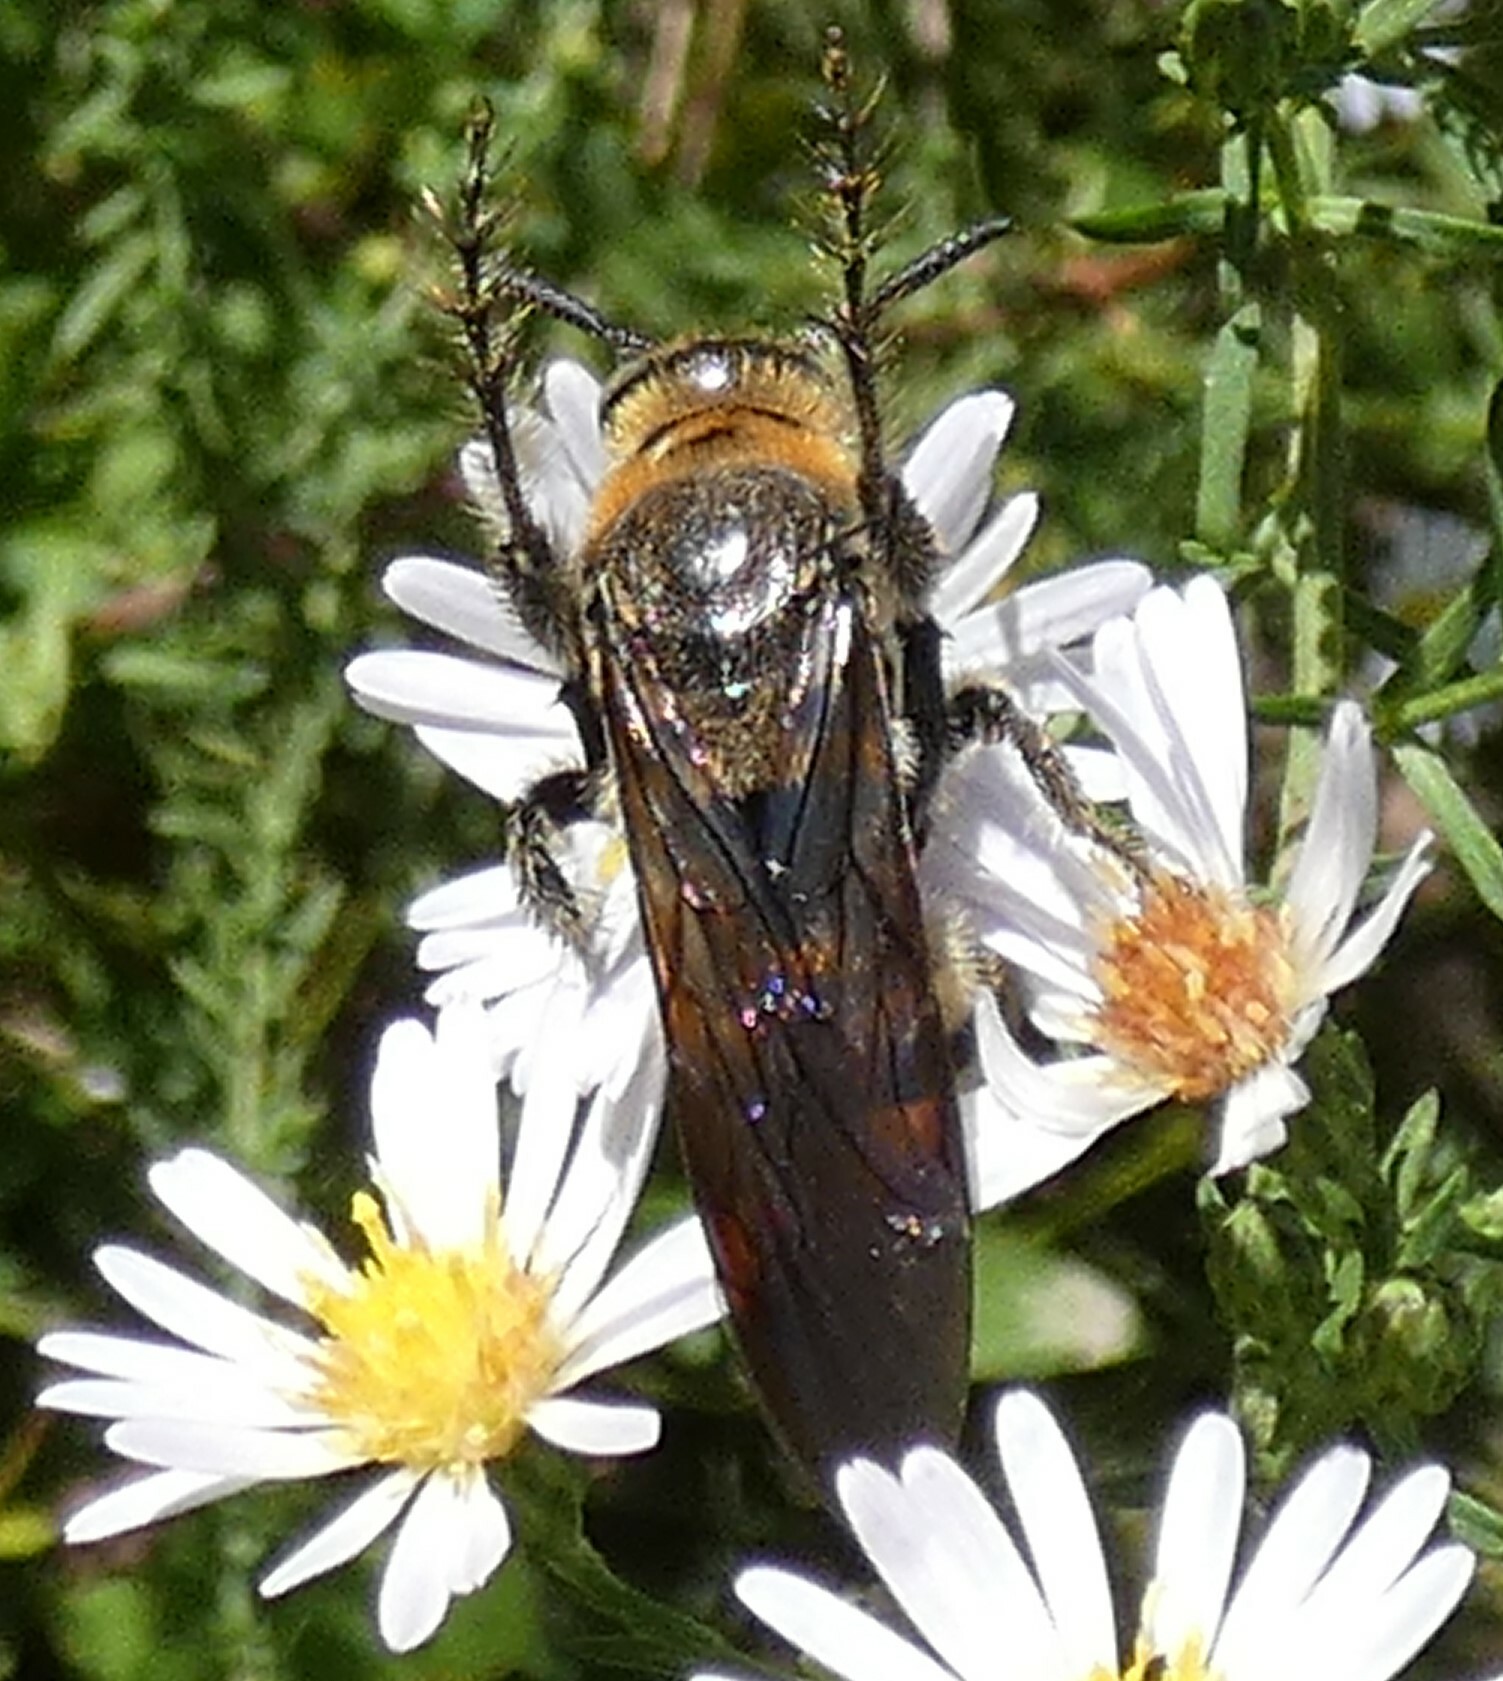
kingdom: Animalia
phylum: Arthropoda
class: Insecta
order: Hymenoptera
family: Scoliidae
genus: Dielis
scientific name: Dielis
